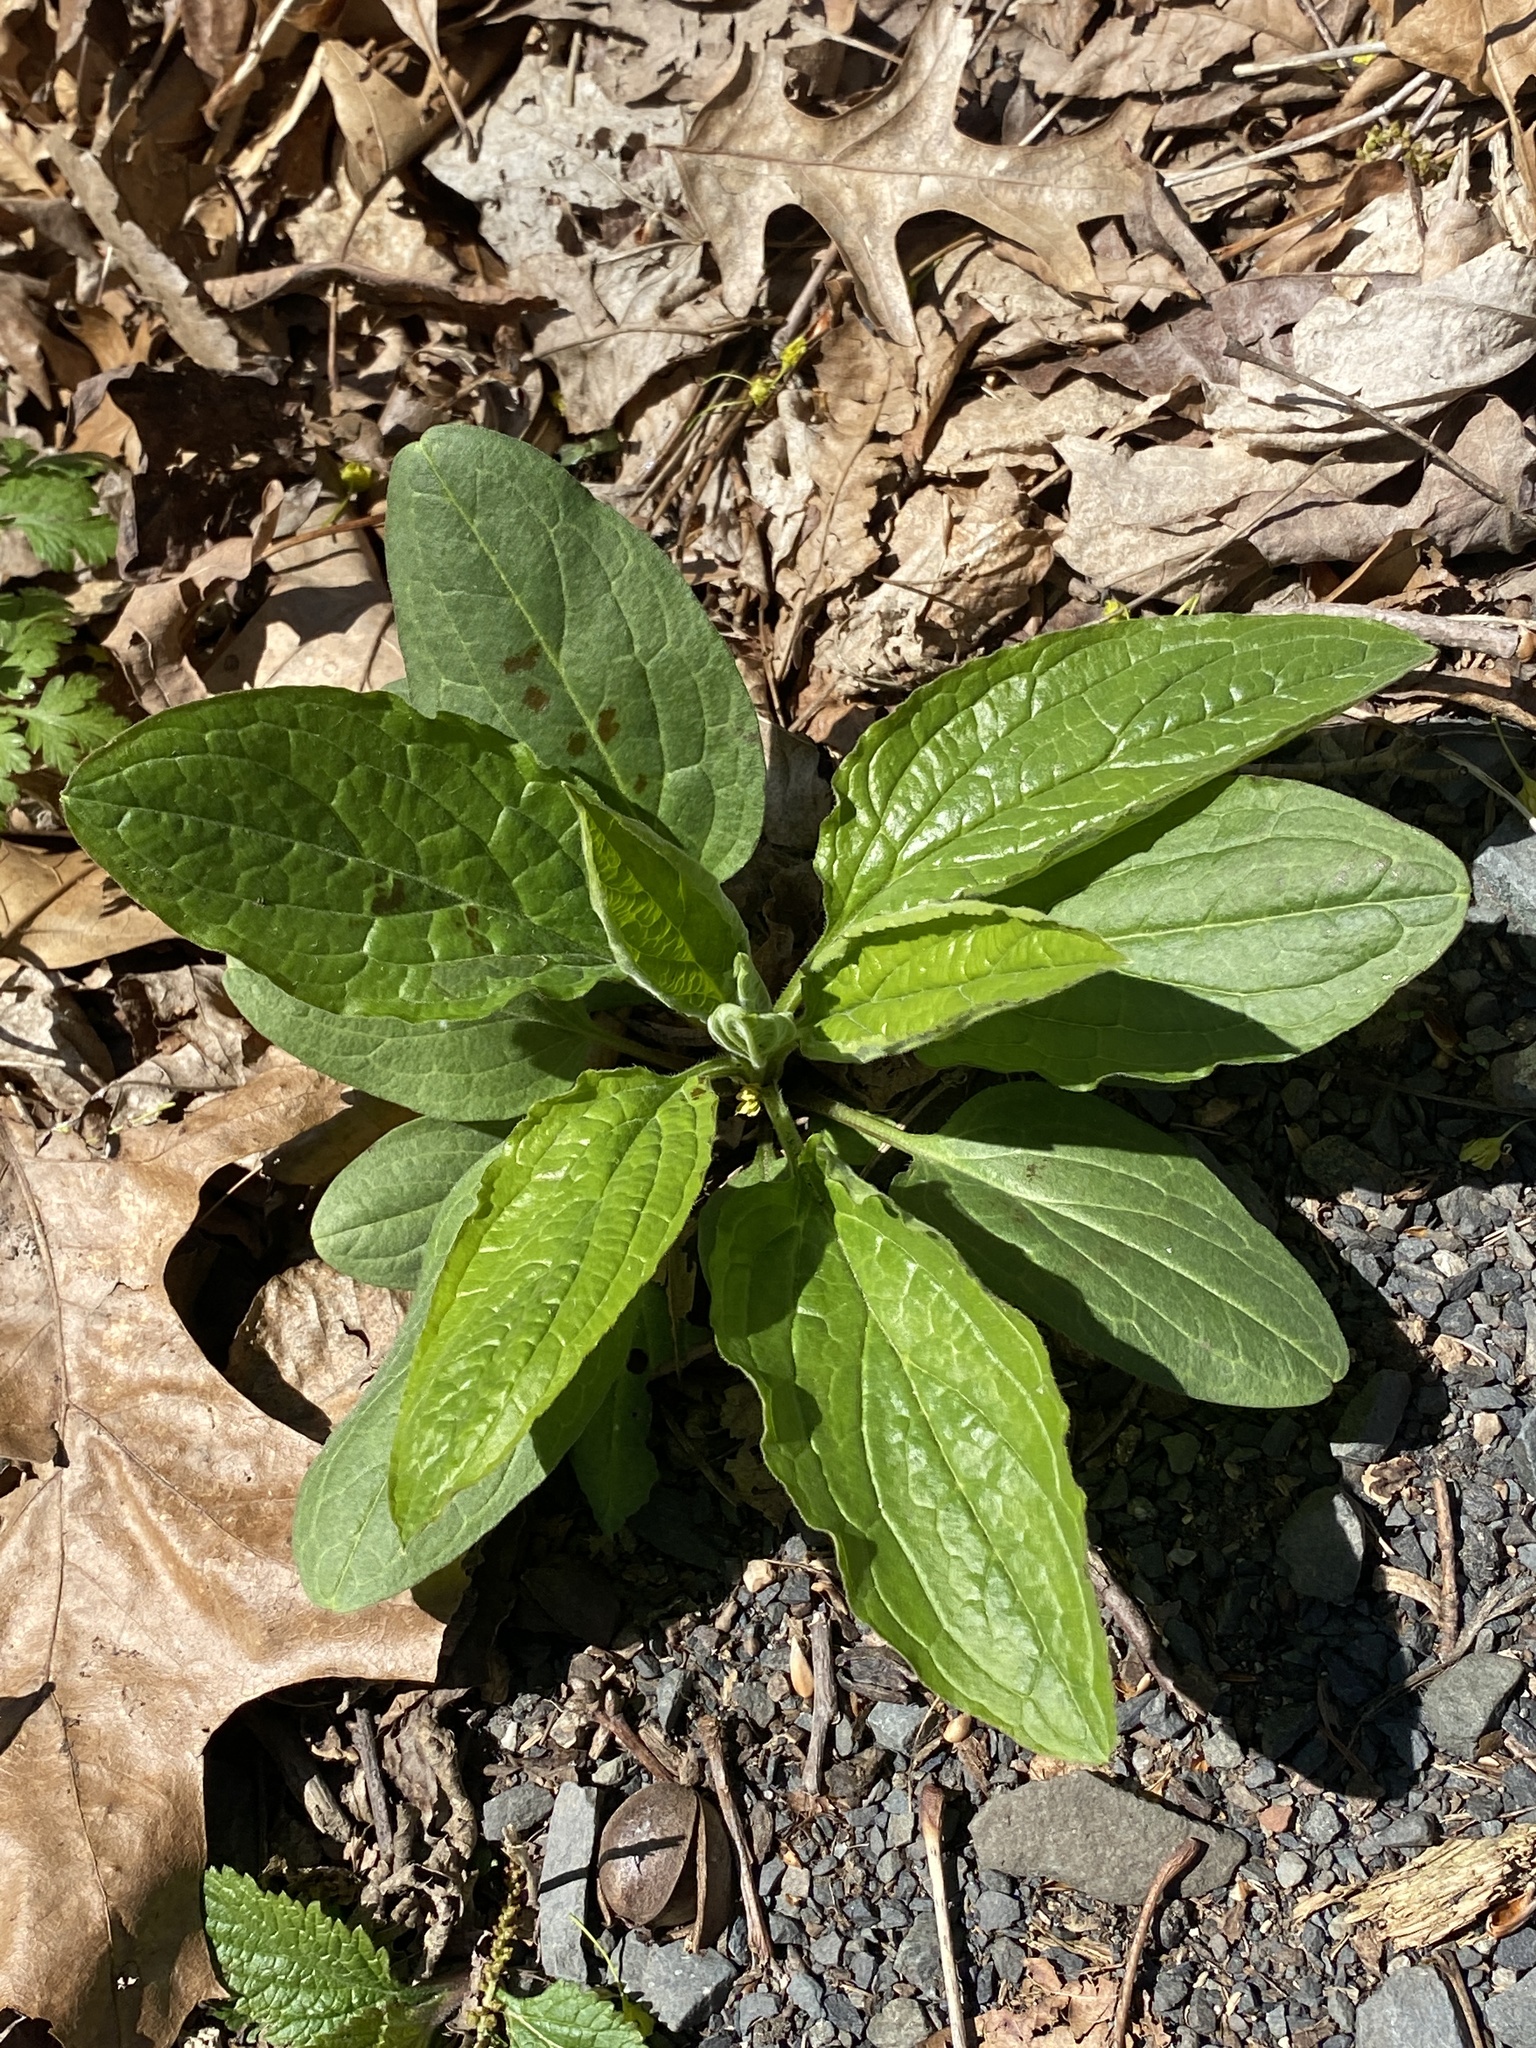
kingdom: Plantae
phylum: Tracheophyta
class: Magnoliopsida
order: Boraginales
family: Boraginaceae
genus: Hackelia
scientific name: Hackelia virginiana
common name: Beggar's-lice
